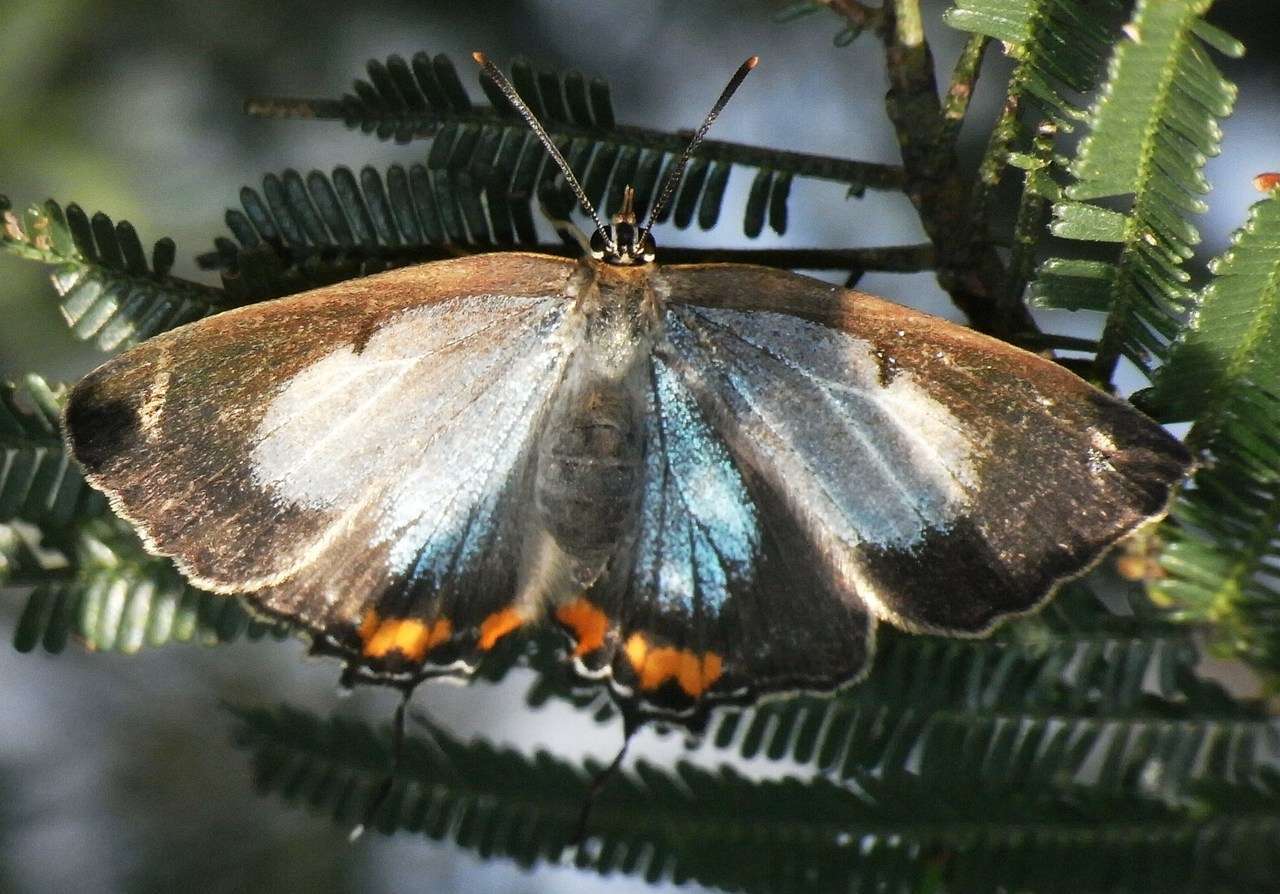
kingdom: Animalia
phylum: Arthropoda
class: Insecta
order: Lepidoptera
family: Lycaenidae
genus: Jalmenus
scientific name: Jalmenus evagoras
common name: Common imperial blue
